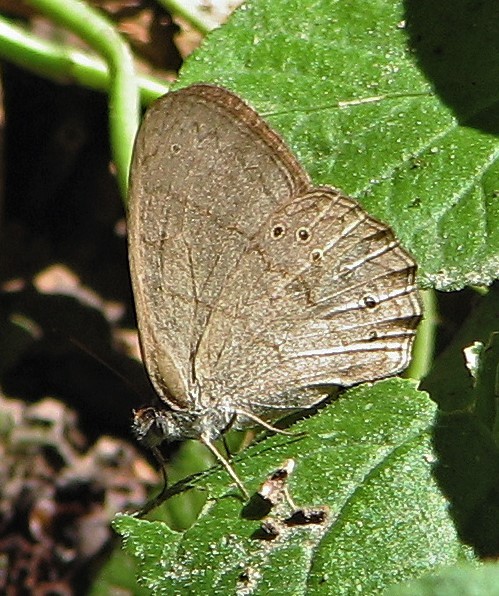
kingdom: Animalia
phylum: Arthropoda
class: Insecta
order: Lepidoptera
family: Nymphalidae
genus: Paryphthimoides
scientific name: Paryphthimoides poltys
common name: Poltys satyr
